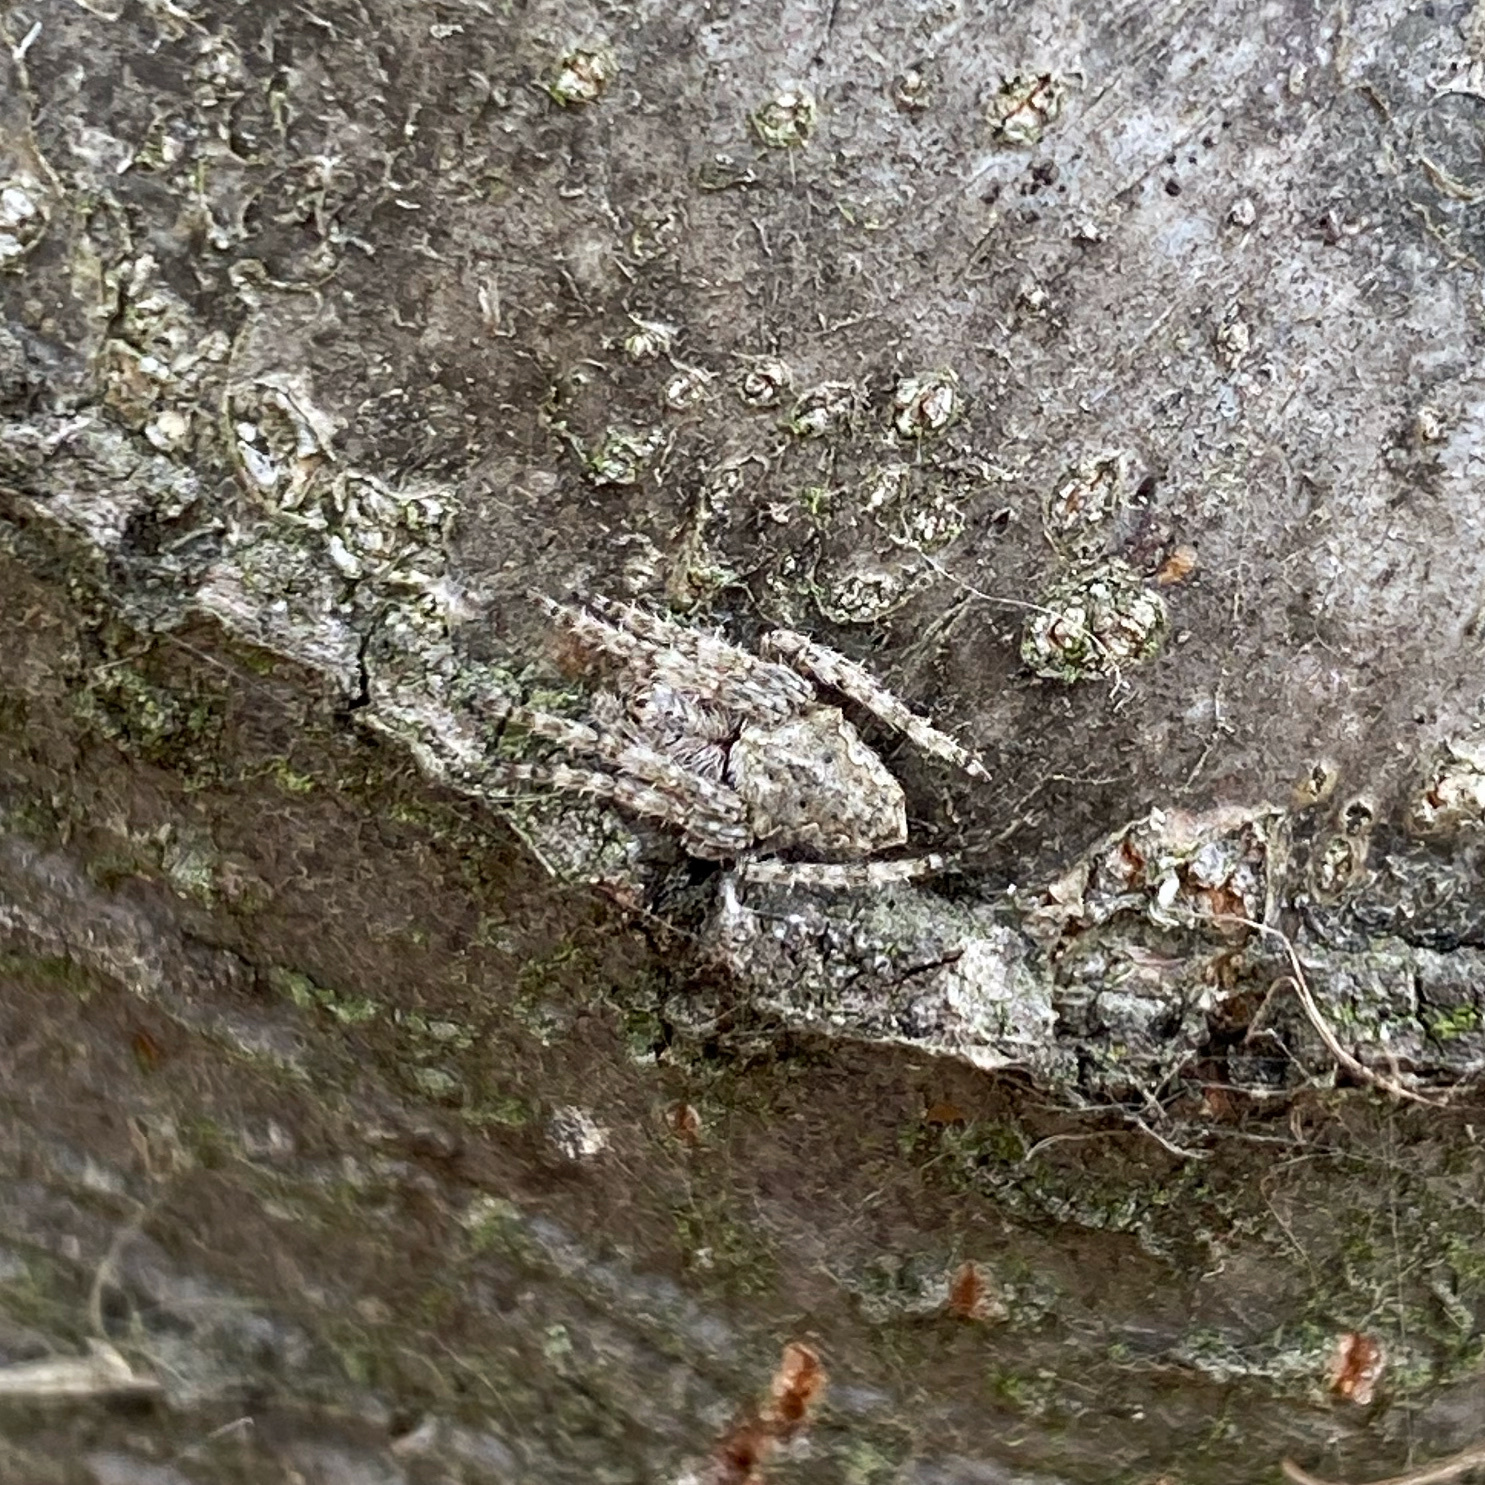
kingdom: Animalia
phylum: Arthropoda
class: Arachnida
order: Araneae
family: Araneidae
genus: Eriophora
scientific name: Eriophora pustulosa
